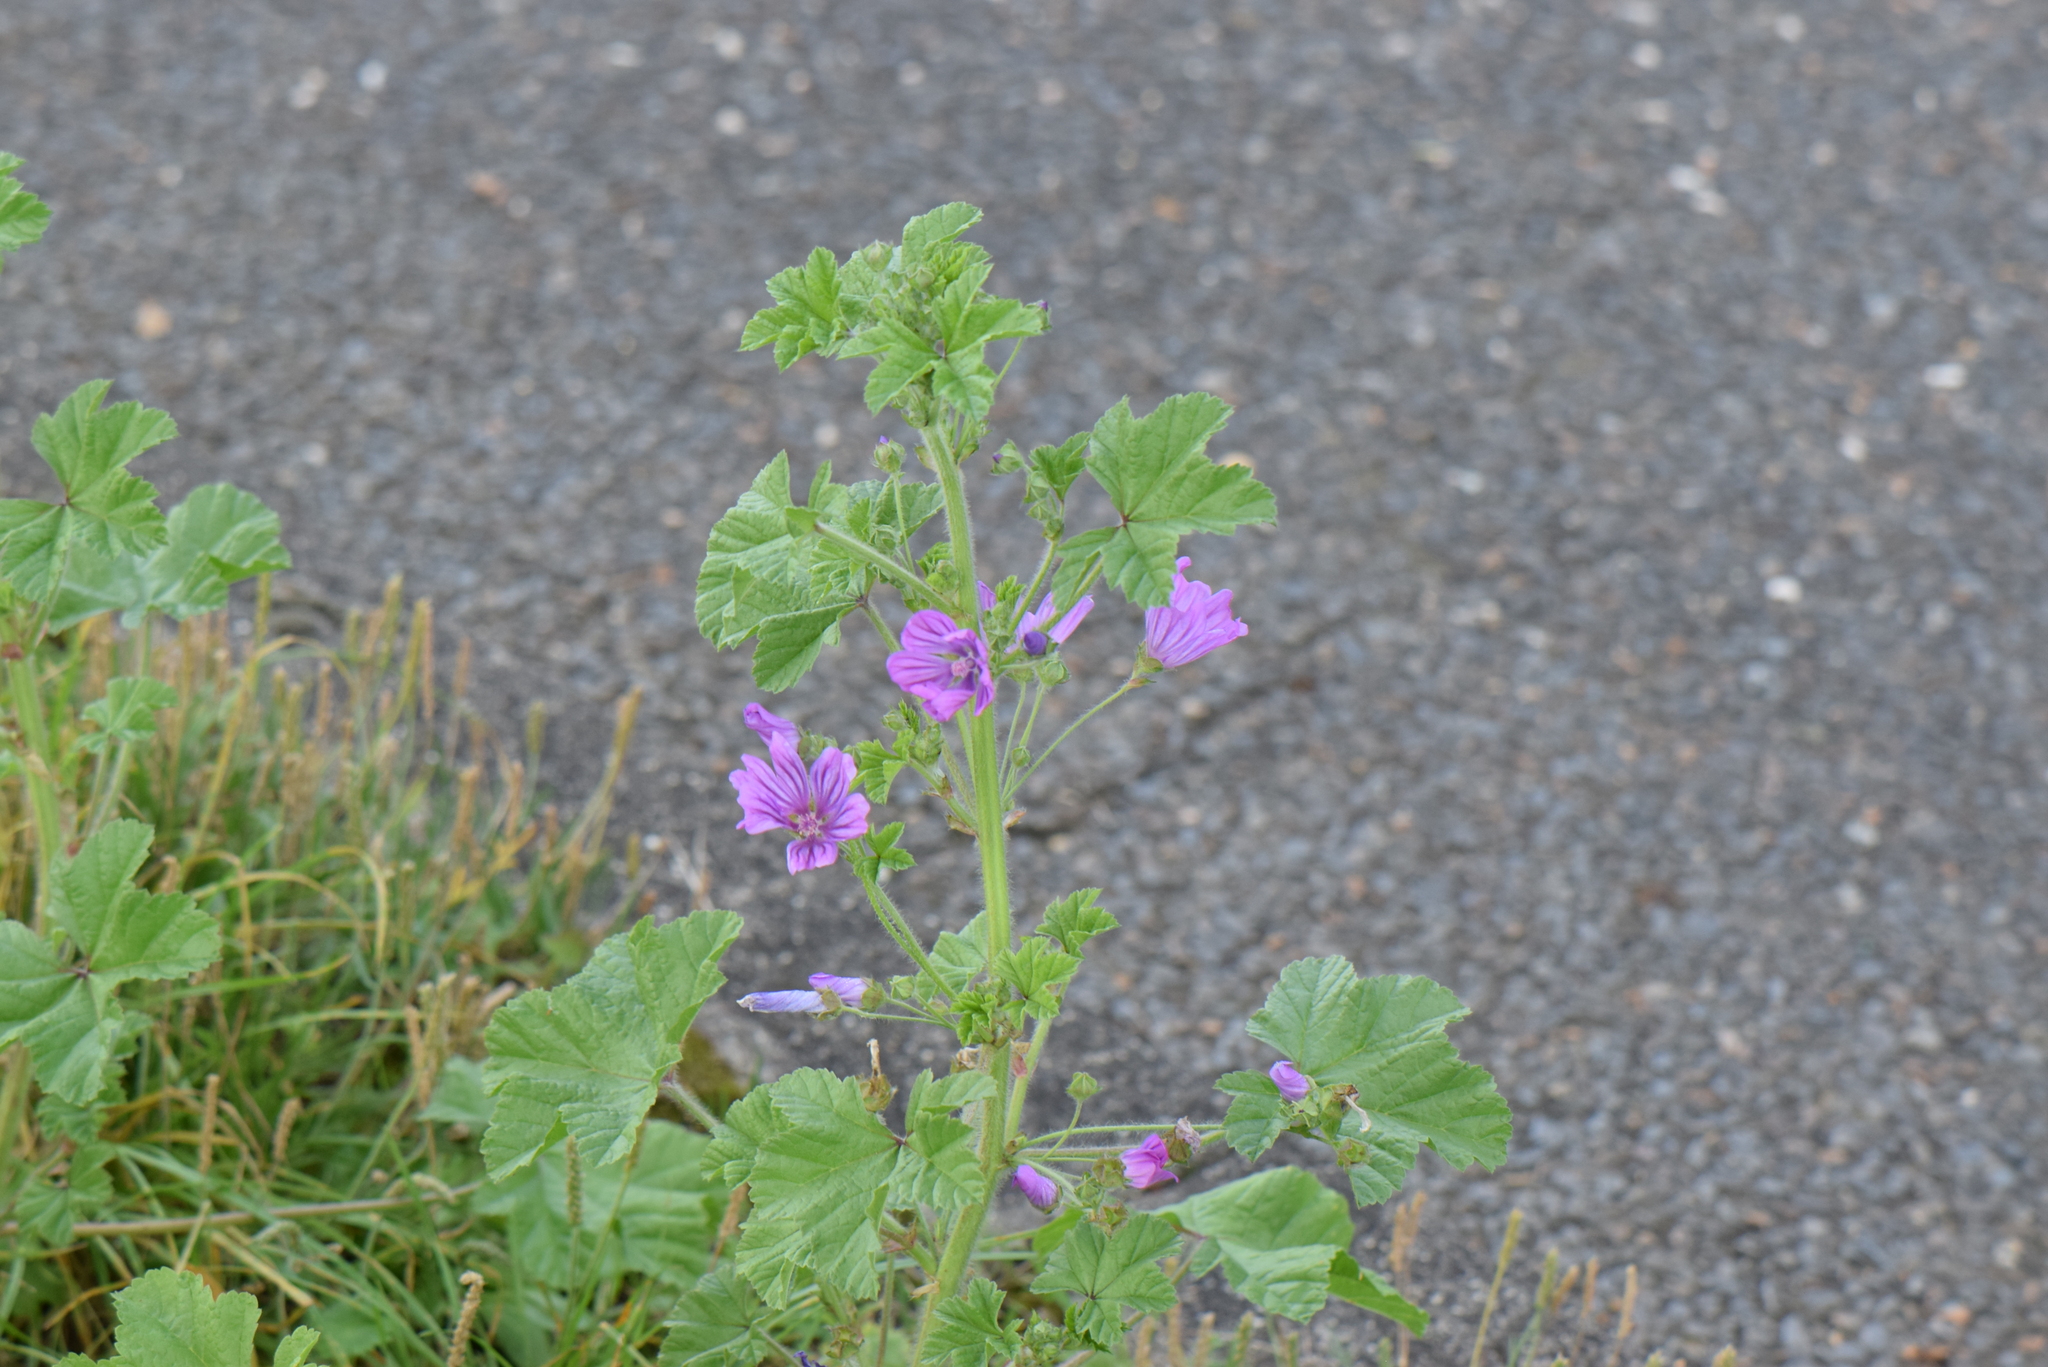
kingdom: Plantae
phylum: Tracheophyta
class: Magnoliopsida
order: Malvales
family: Malvaceae
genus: Malva
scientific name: Malva sylvestris
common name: Common mallow
